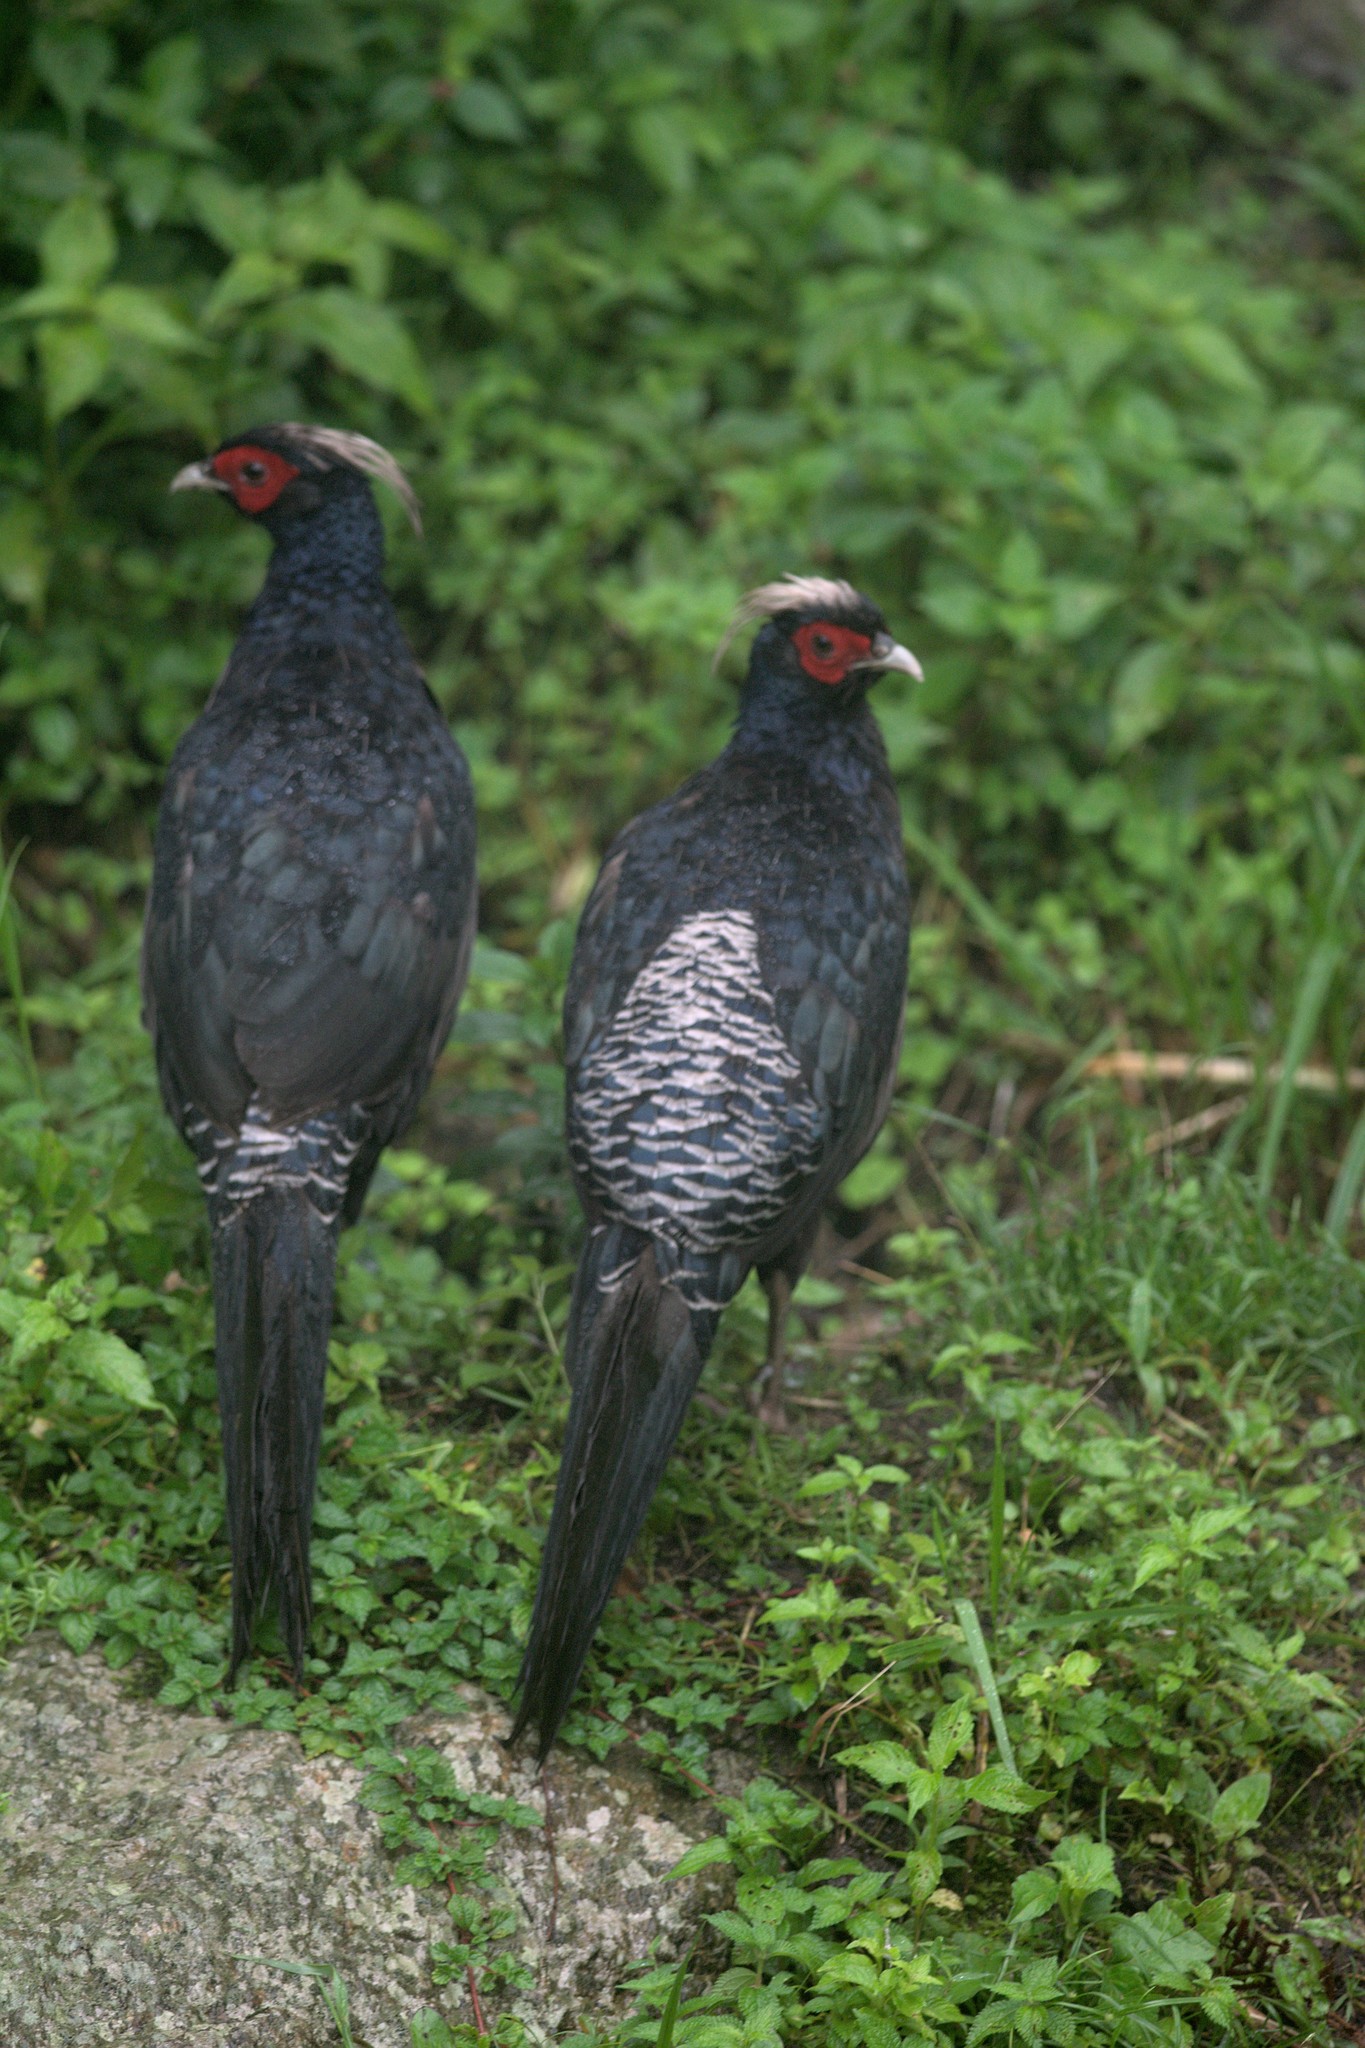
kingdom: Animalia
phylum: Chordata
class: Aves
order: Galliformes
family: Phasianidae
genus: Lophura
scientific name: Lophura leucomelanos
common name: Kalij pheasant
